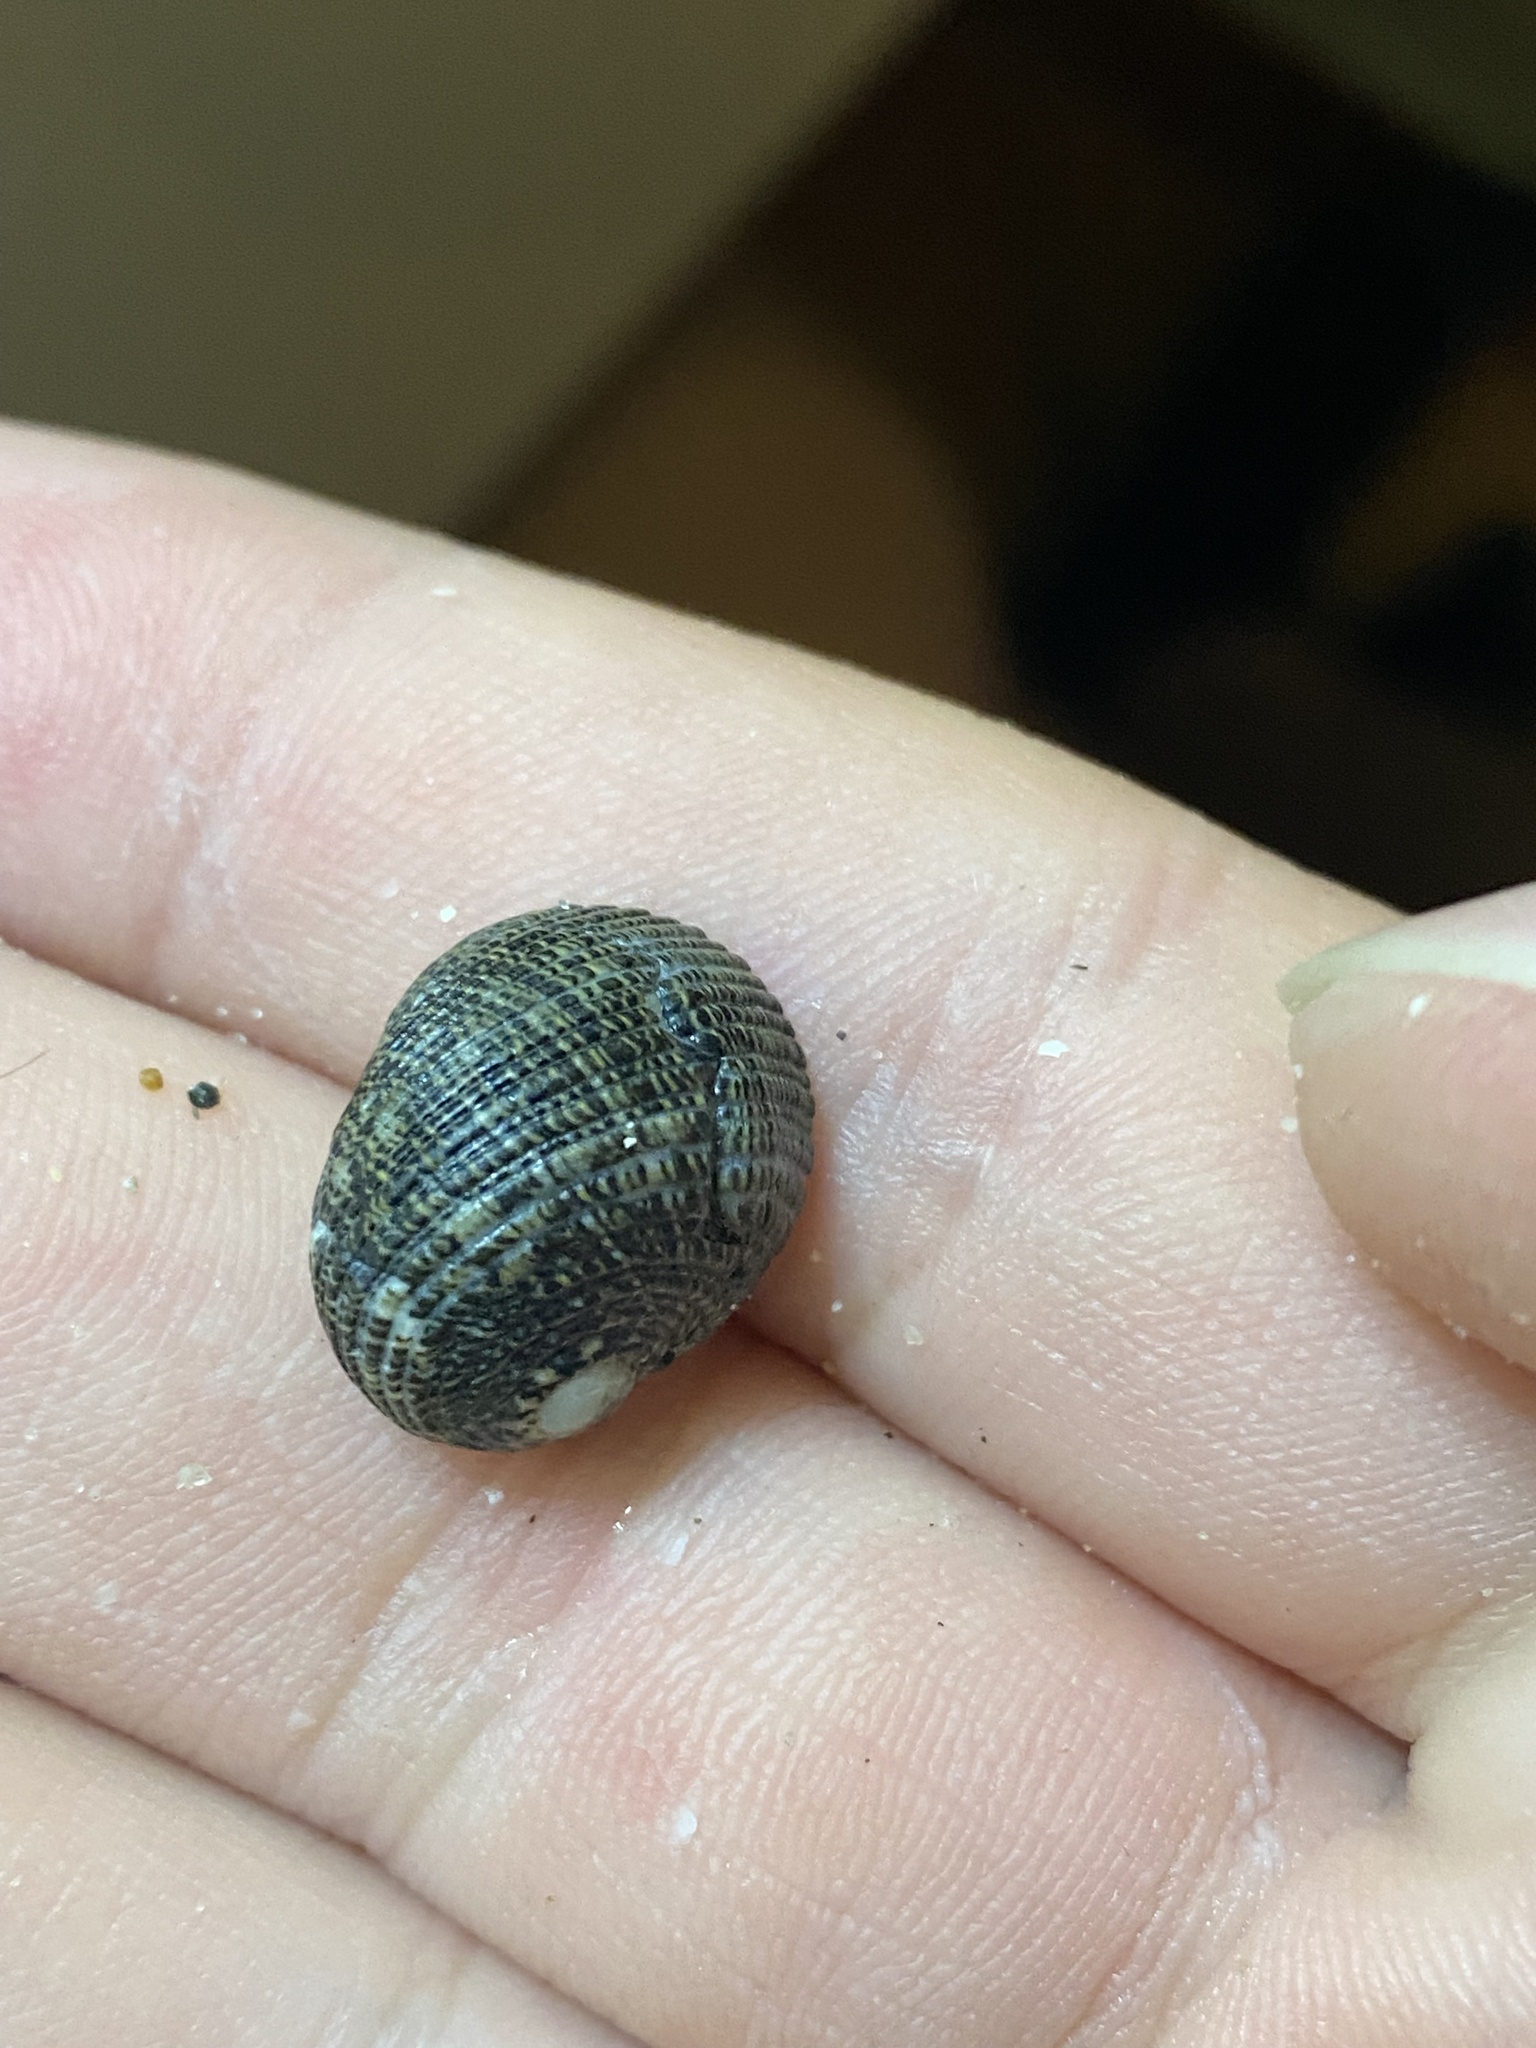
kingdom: Animalia
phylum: Mollusca
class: Gastropoda
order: Cycloneritida
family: Neritidae
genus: Nerita
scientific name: Nerita funiculata
